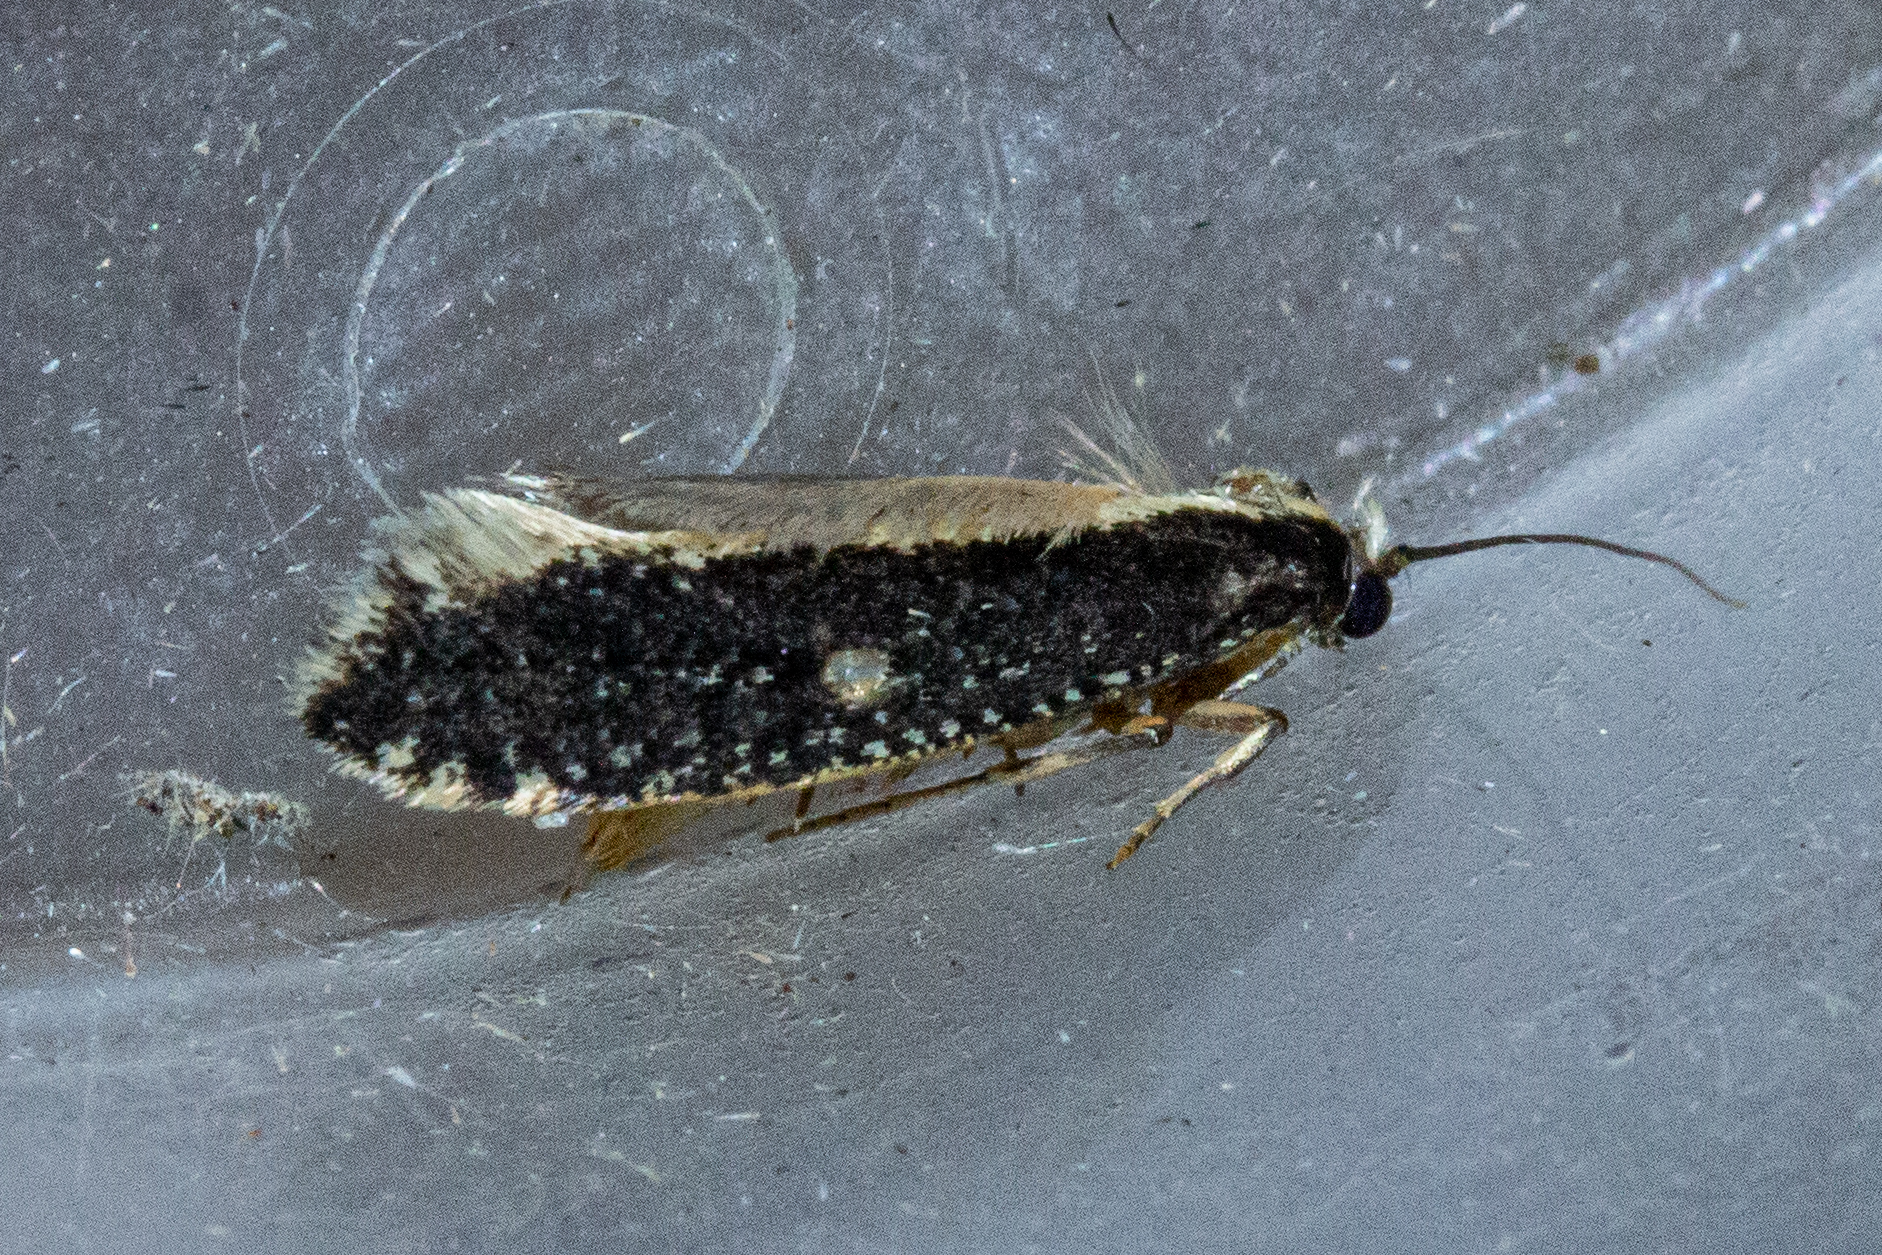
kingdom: Animalia
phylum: Arthropoda
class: Insecta
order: Lepidoptera
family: Tineidae
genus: Monopis
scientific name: Monopis ethelella
